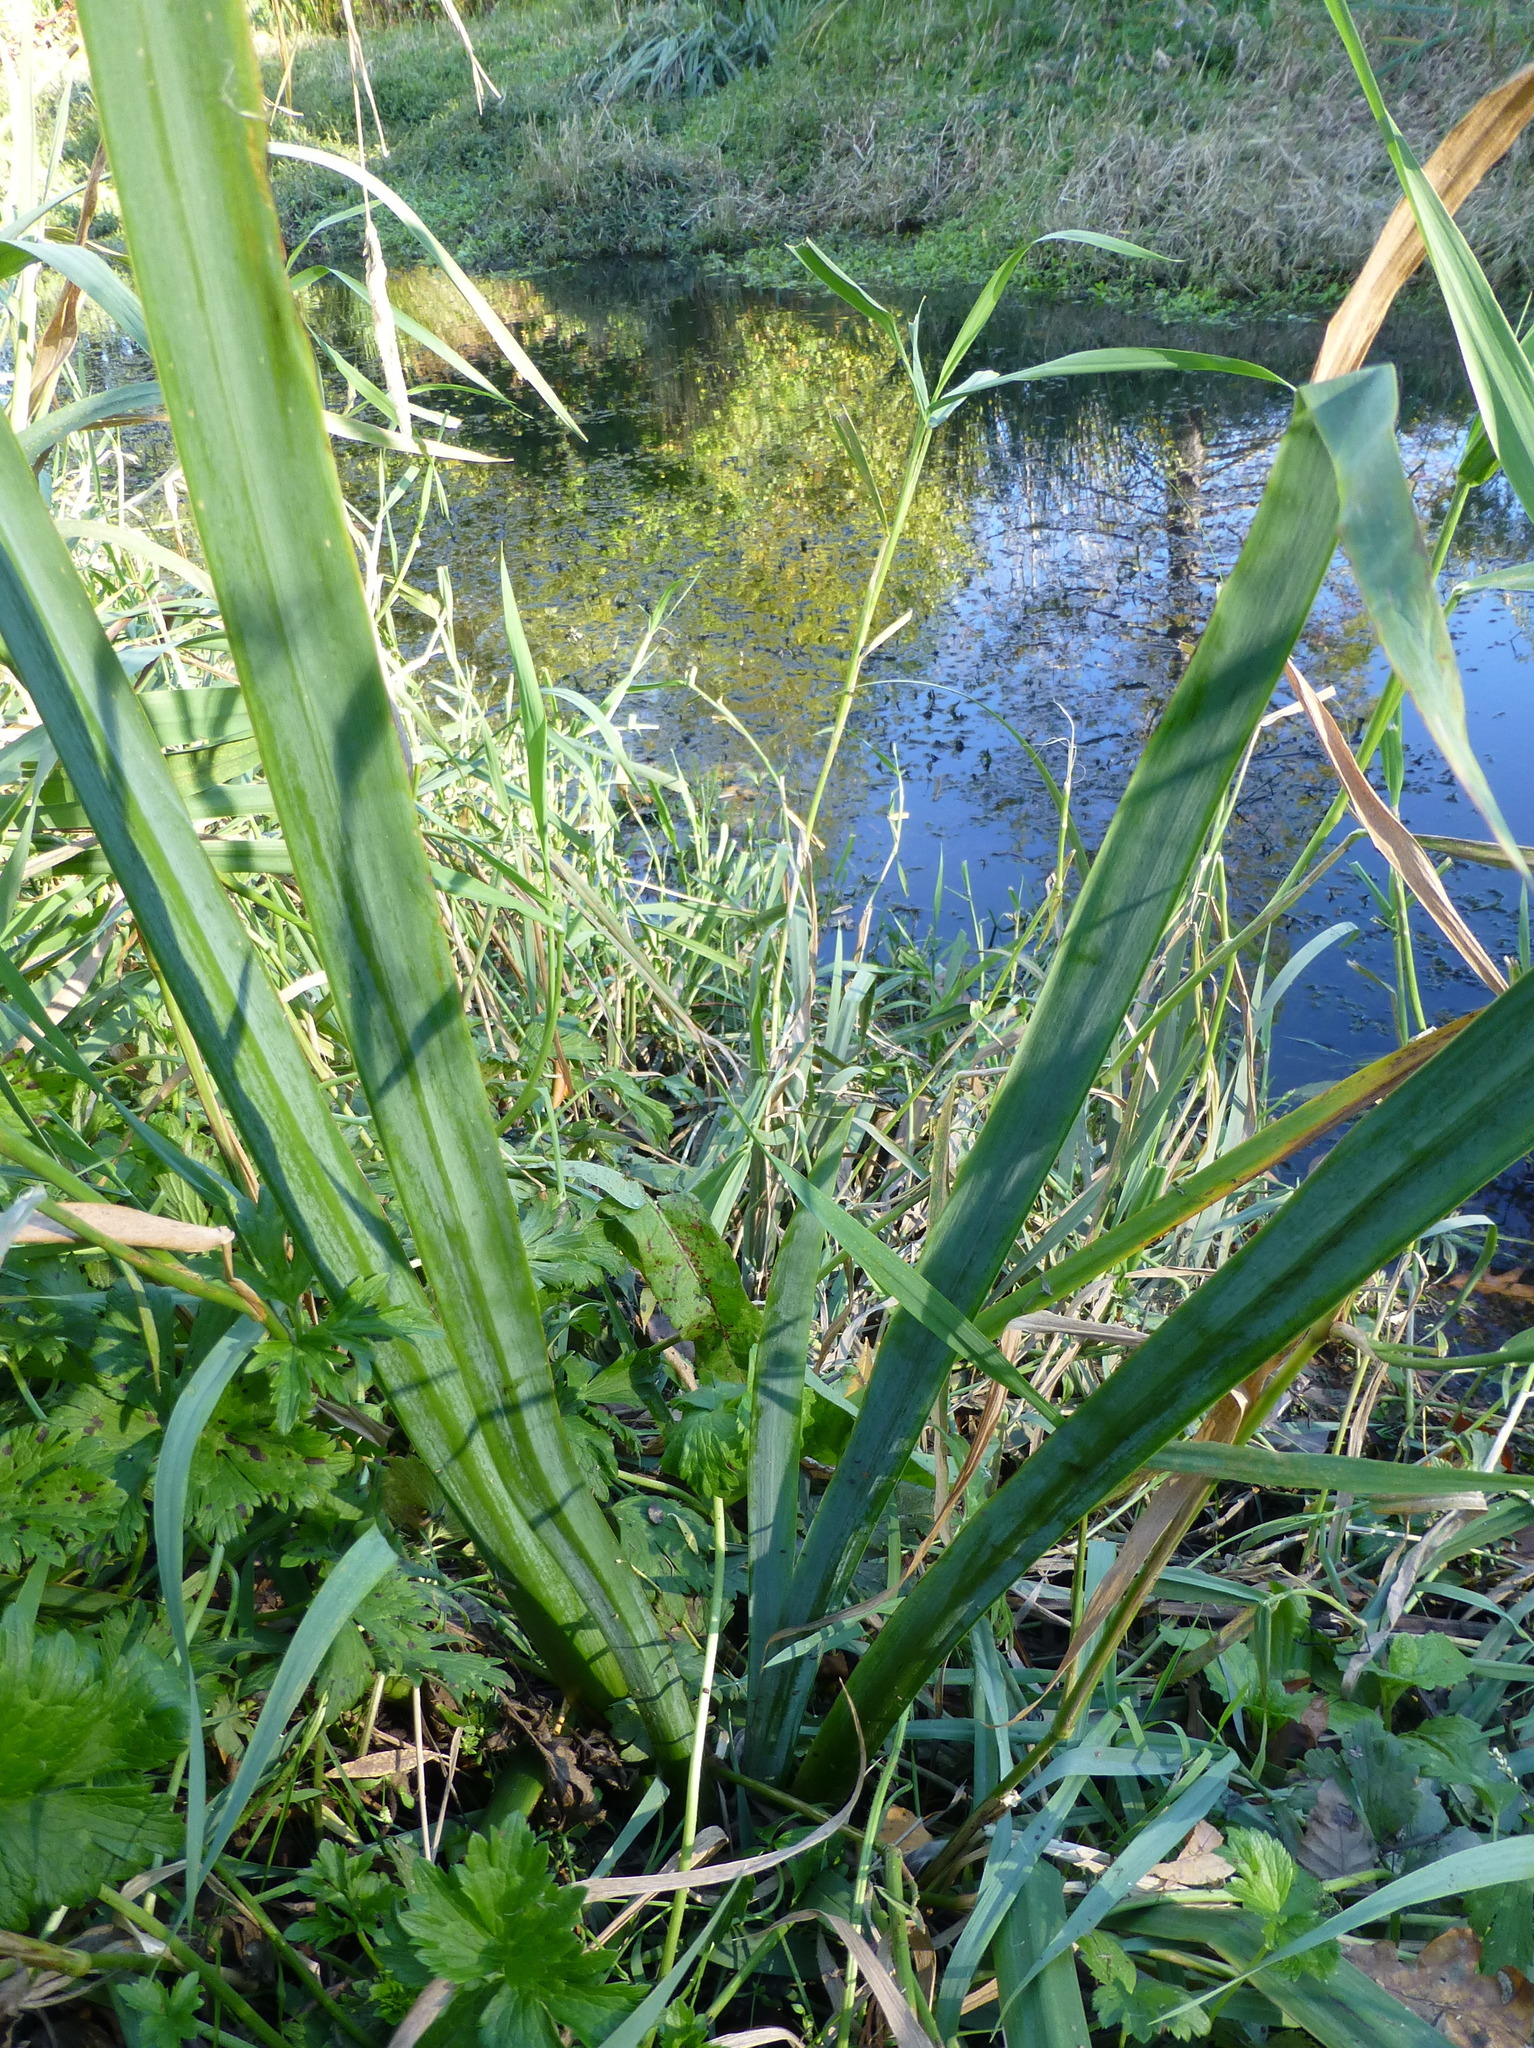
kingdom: Plantae
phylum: Tracheophyta
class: Liliopsida
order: Asparagales
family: Iridaceae
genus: Iris
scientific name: Iris pseudacorus
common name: Yellow flag
